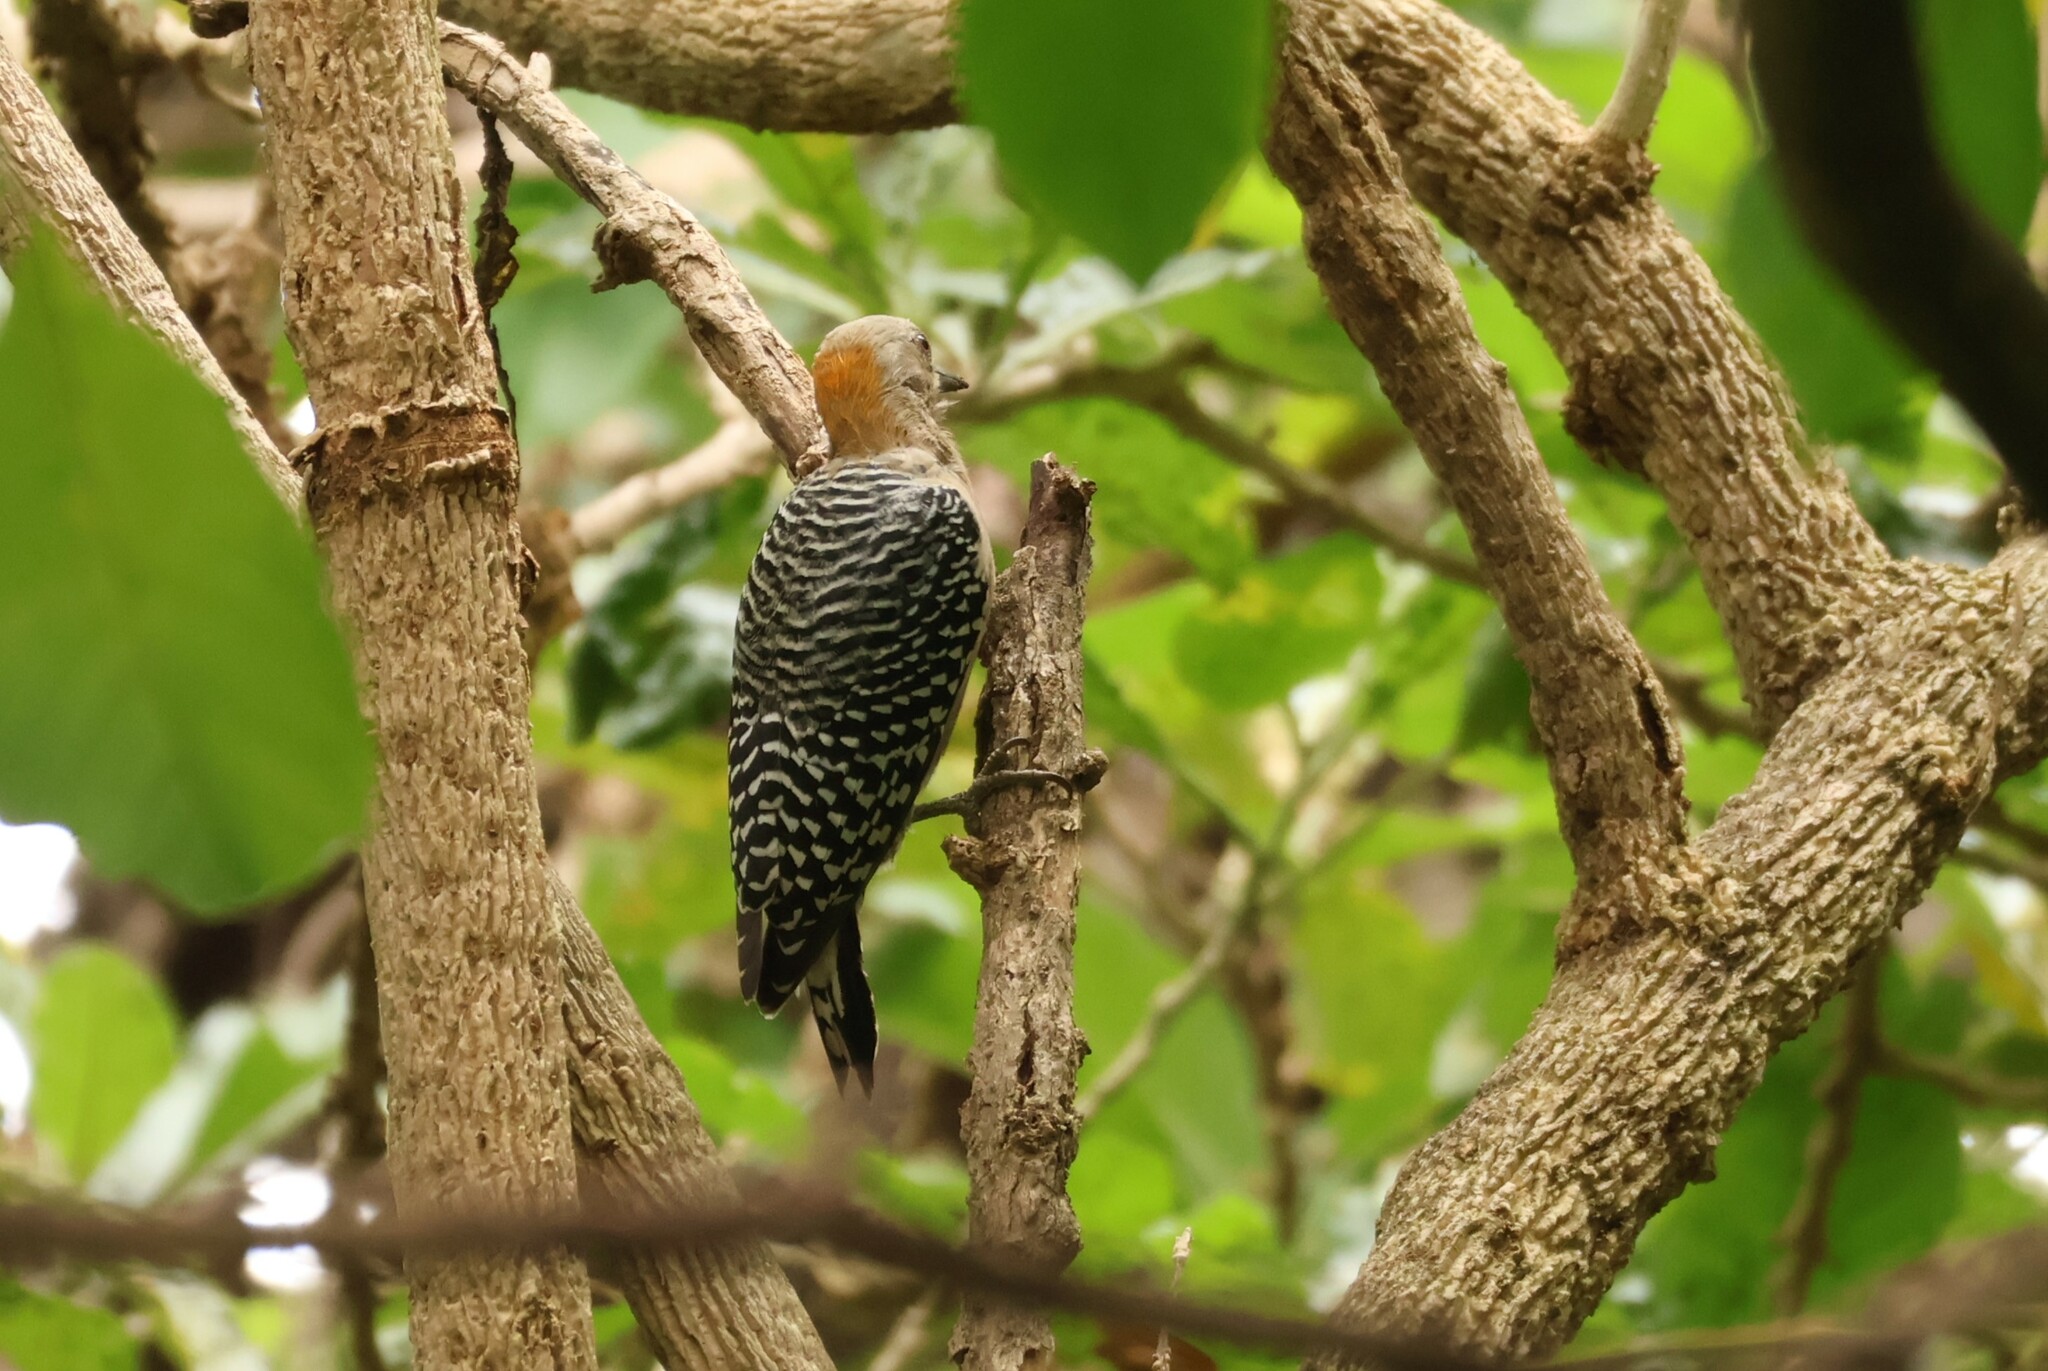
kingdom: Animalia
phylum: Chordata
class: Aves
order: Piciformes
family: Picidae
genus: Melanerpes
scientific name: Melanerpes hoffmannii
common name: Hoffmann's woodpecker
